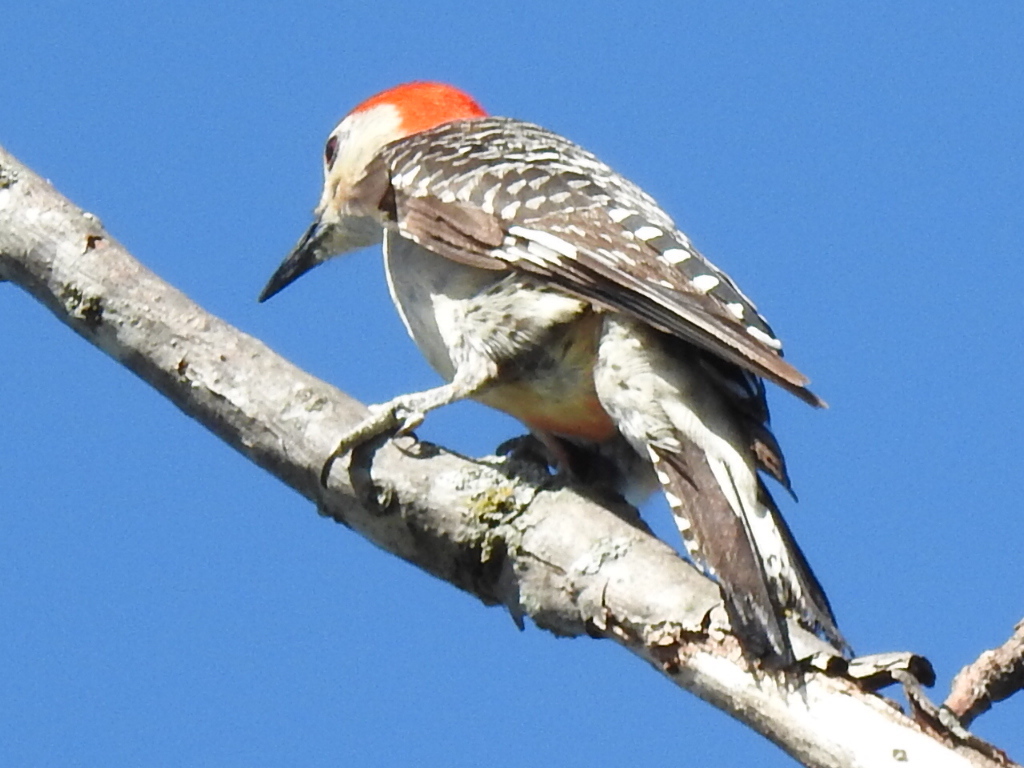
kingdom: Animalia
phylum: Chordata
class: Aves
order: Piciformes
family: Picidae
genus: Melanerpes
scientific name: Melanerpes carolinus
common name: Red-bellied woodpecker
